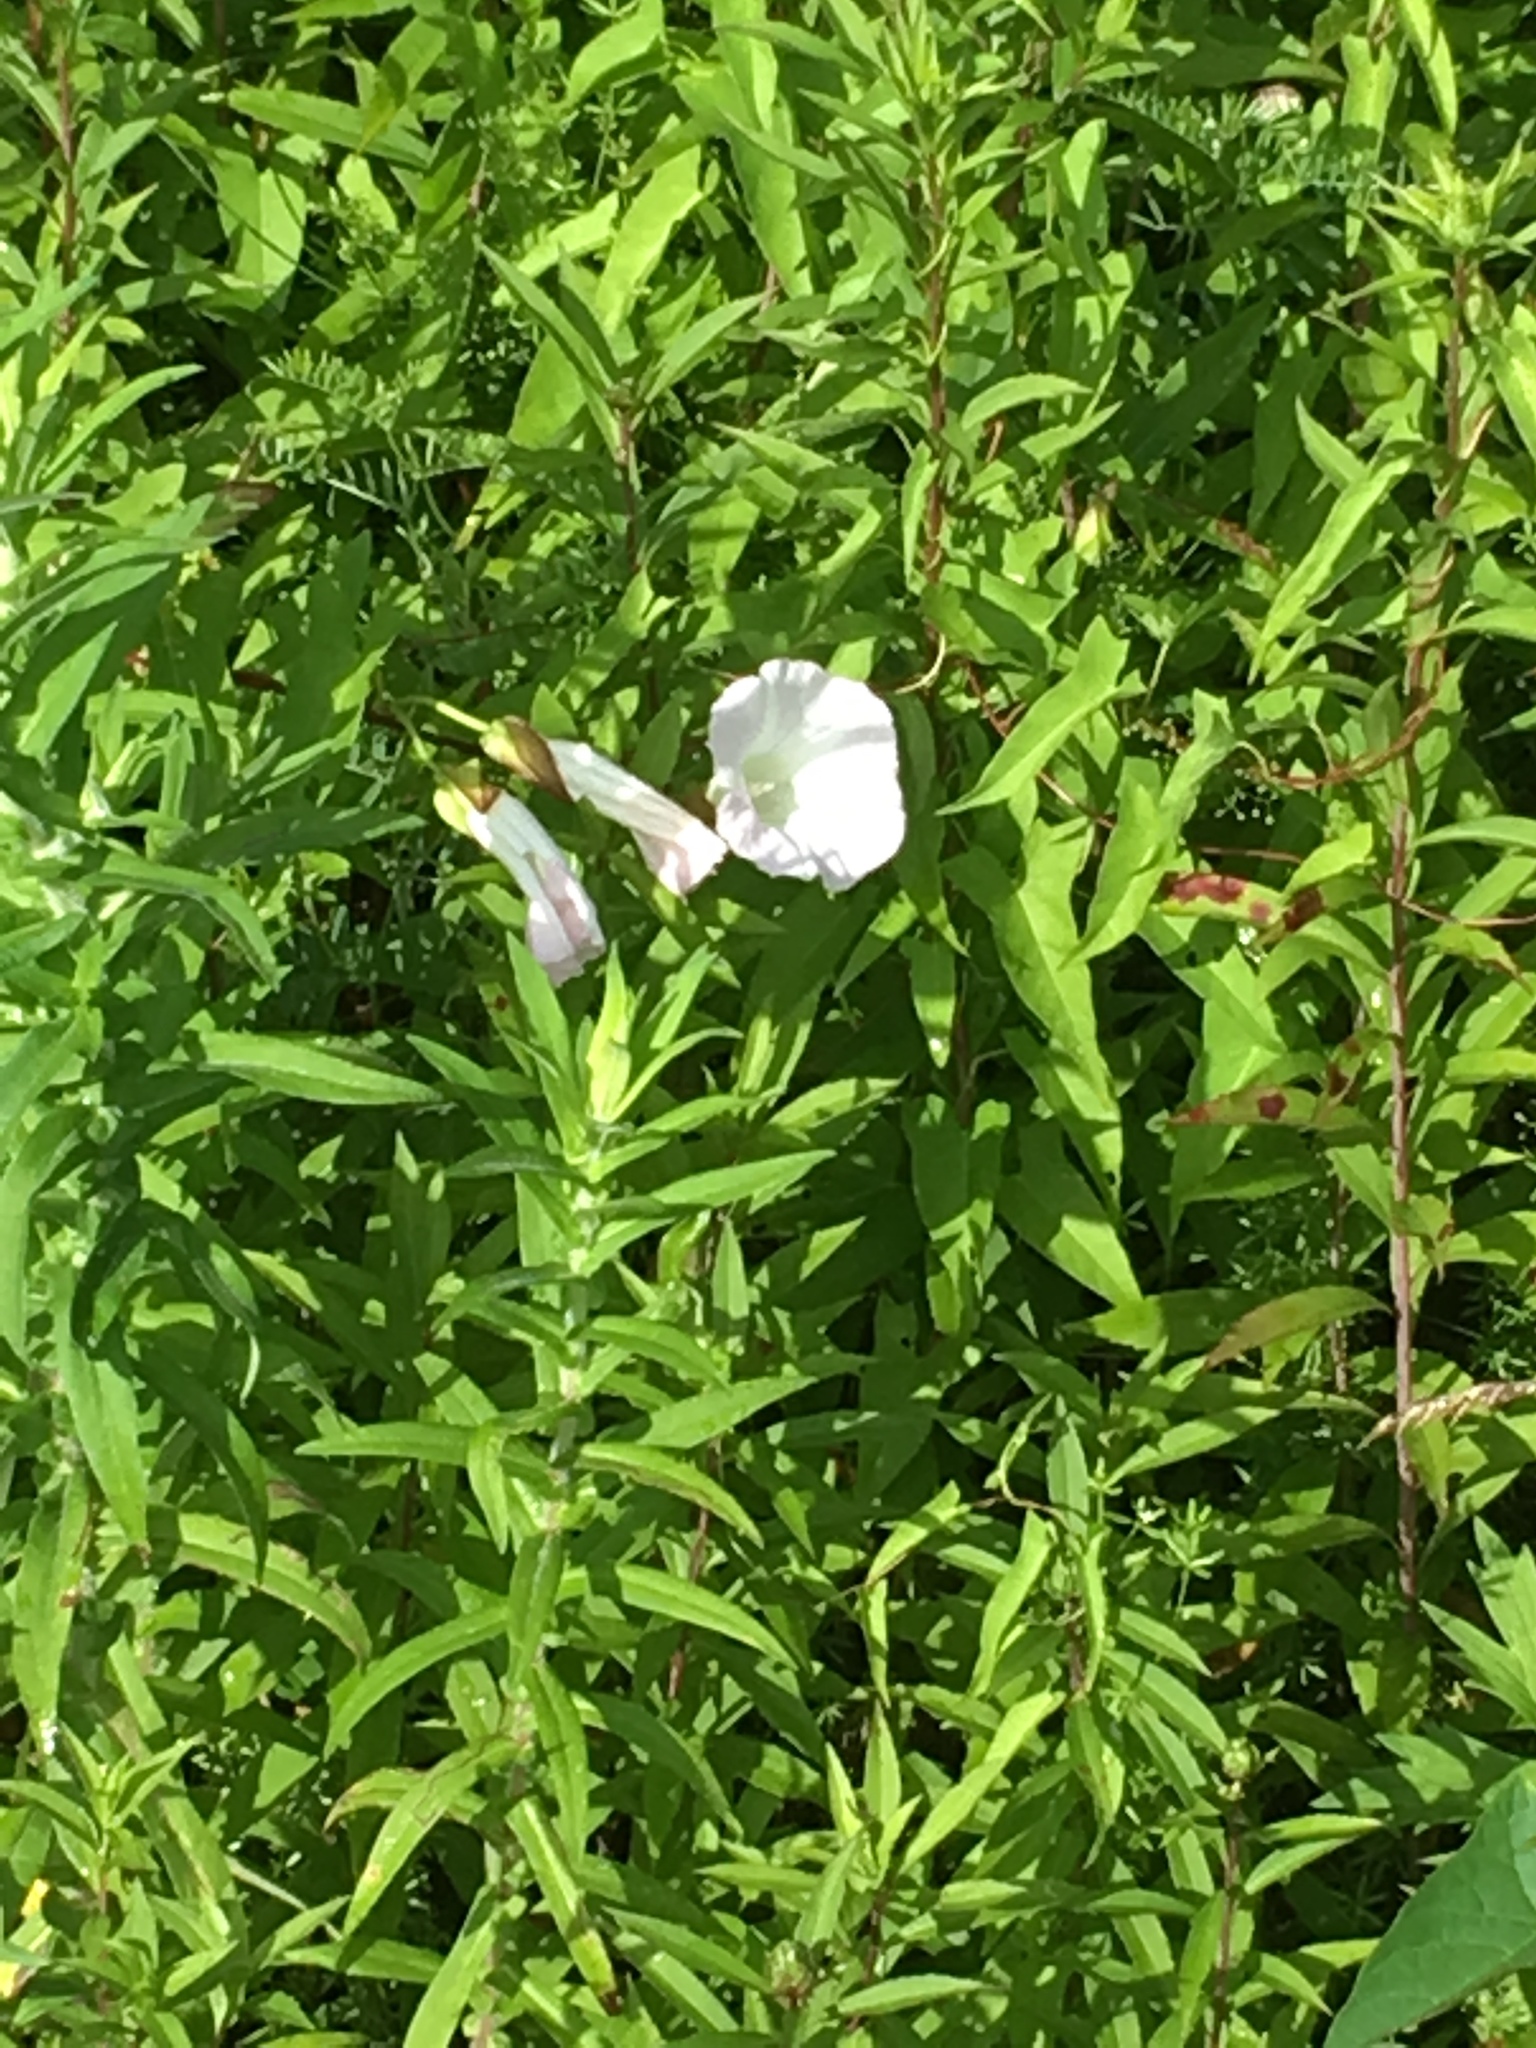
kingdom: Plantae
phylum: Tracheophyta
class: Magnoliopsida
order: Solanales
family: Convolvulaceae
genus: Calystegia
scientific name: Calystegia sepium
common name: Hedge bindweed
